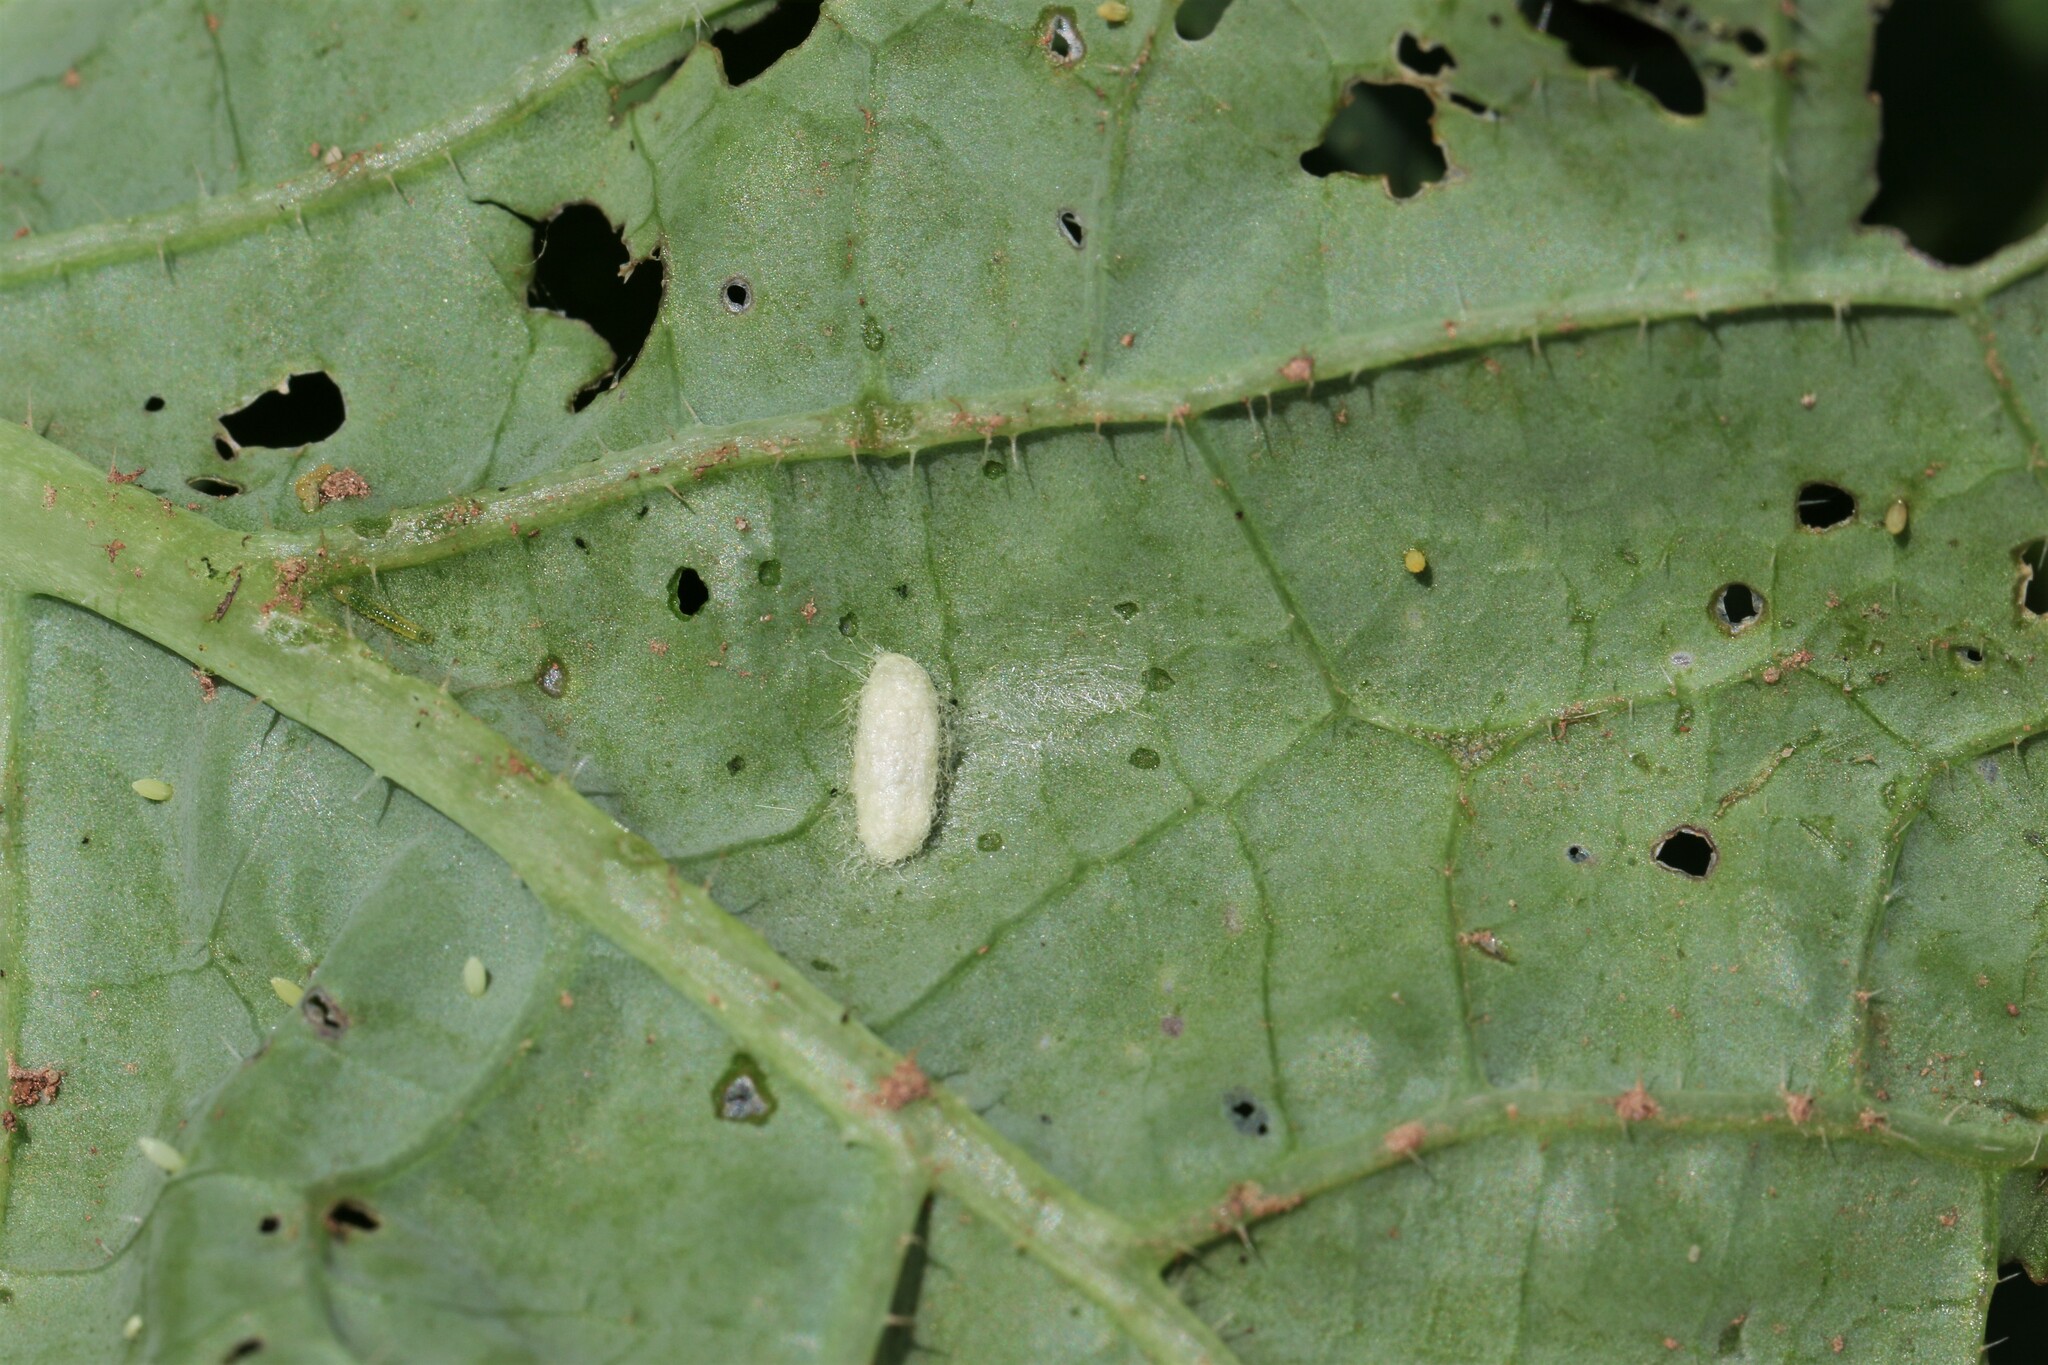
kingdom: Animalia
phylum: Arthropoda
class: Insecta
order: Lepidoptera
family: Pieridae
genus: Pieris
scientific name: Pieris rapae
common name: Small white
